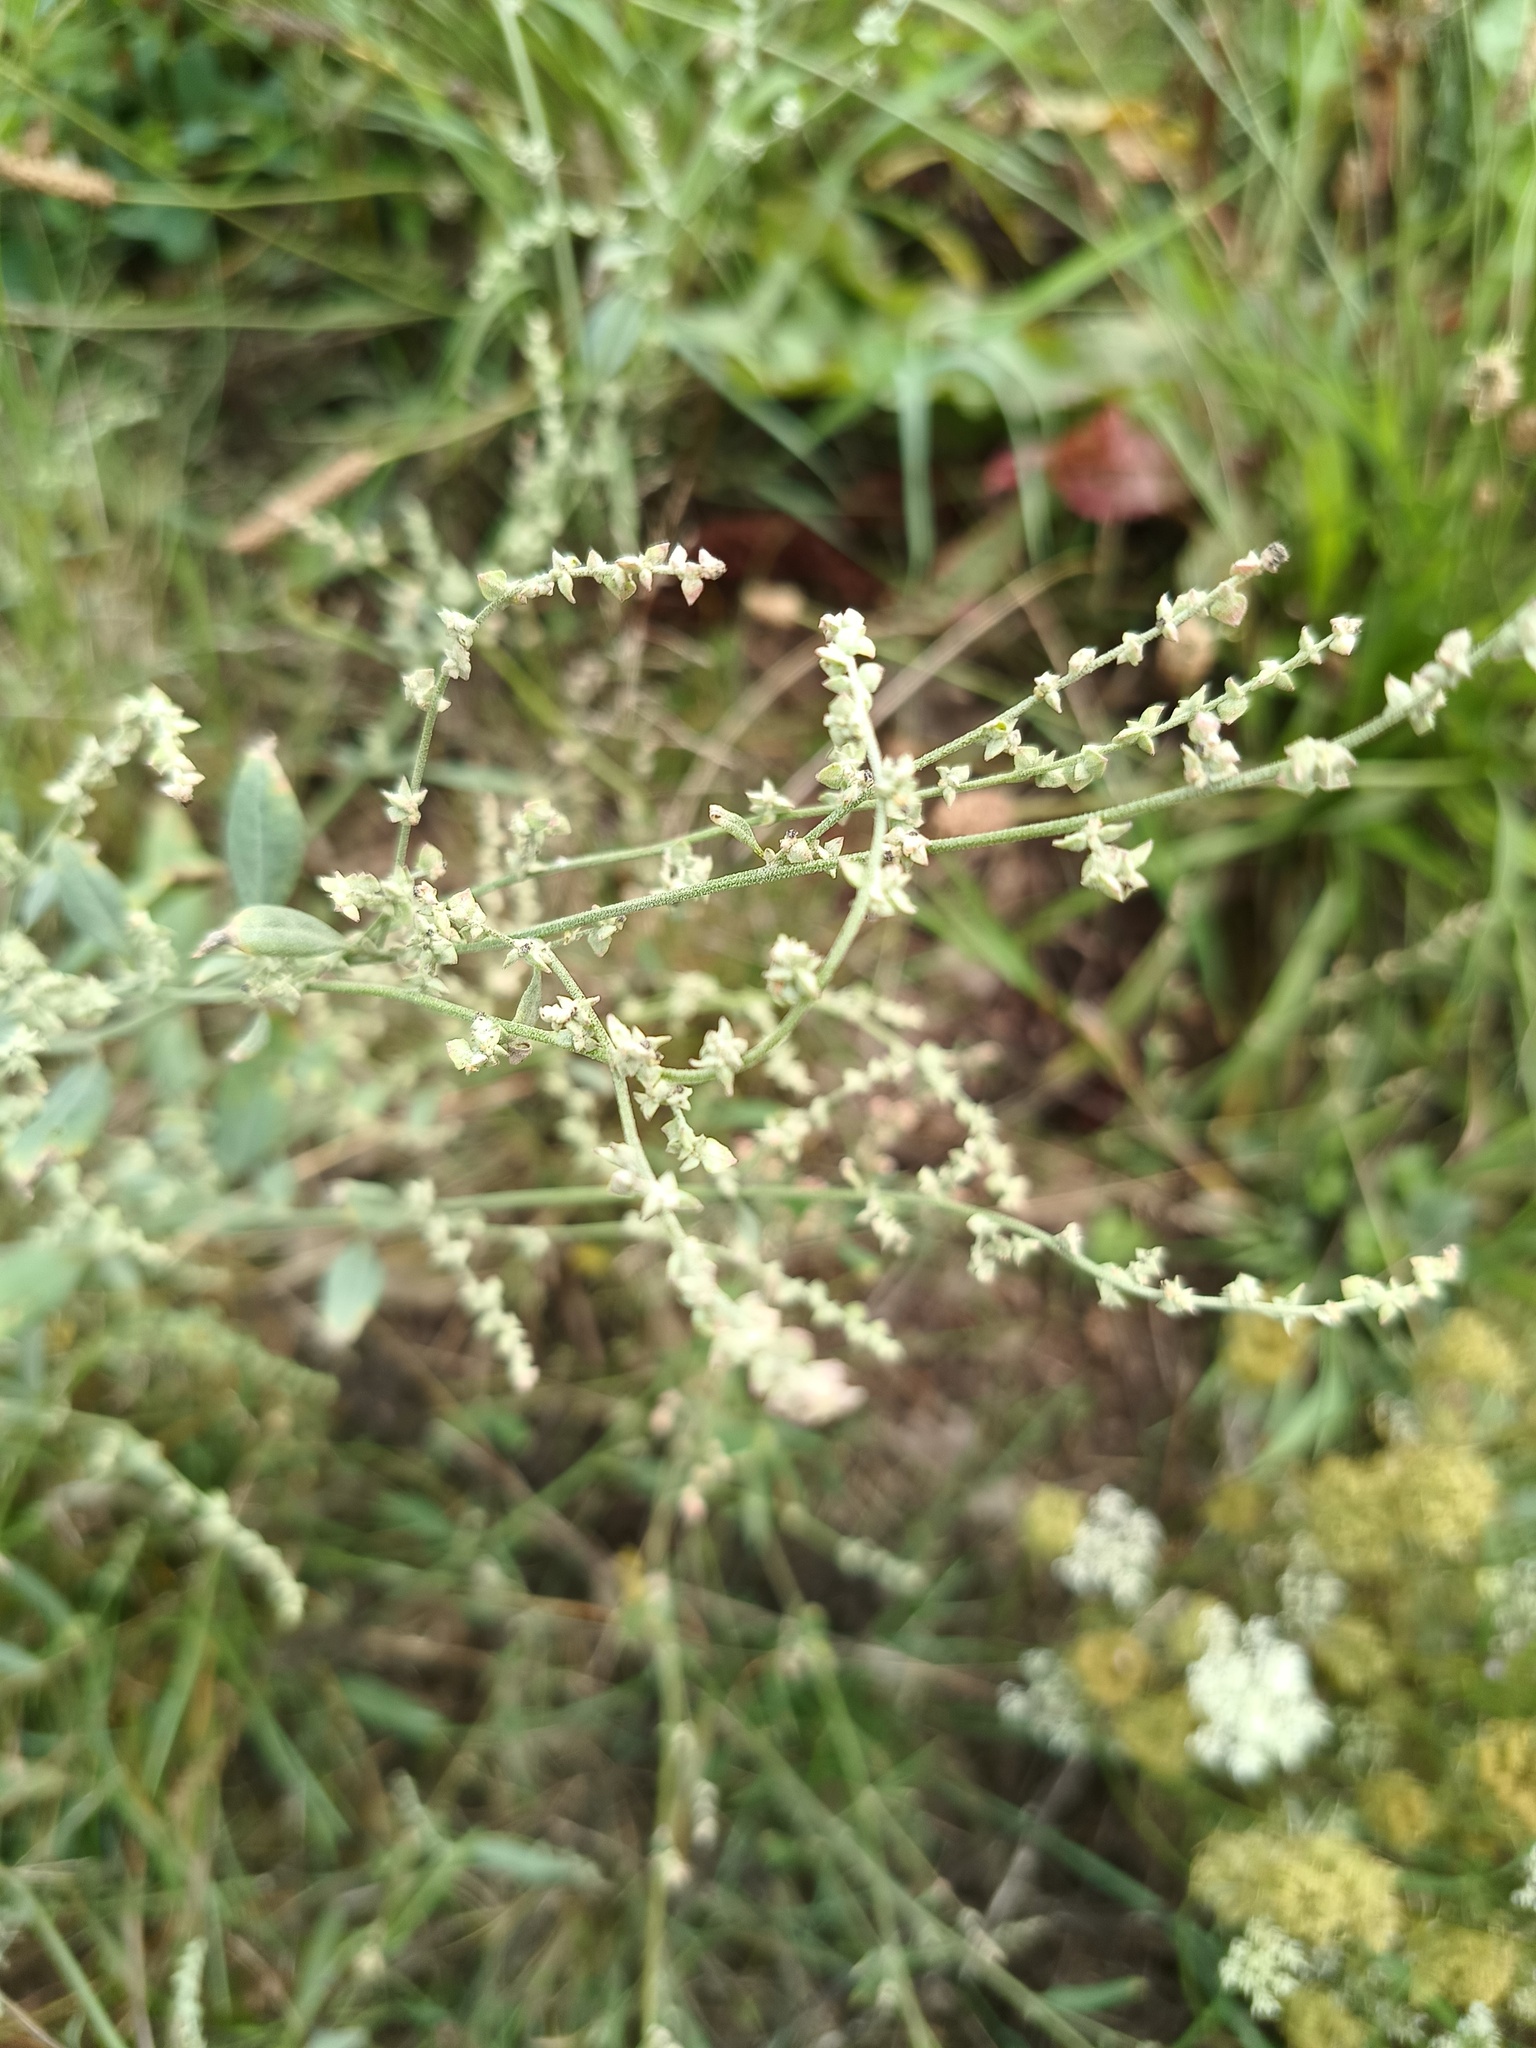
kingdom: Plantae
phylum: Tracheophyta
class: Magnoliopsida
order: Caryophyllales
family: Amaranthaceae
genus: Atriplex
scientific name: Atriplex oblongifolia
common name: Oblongleaf orache
